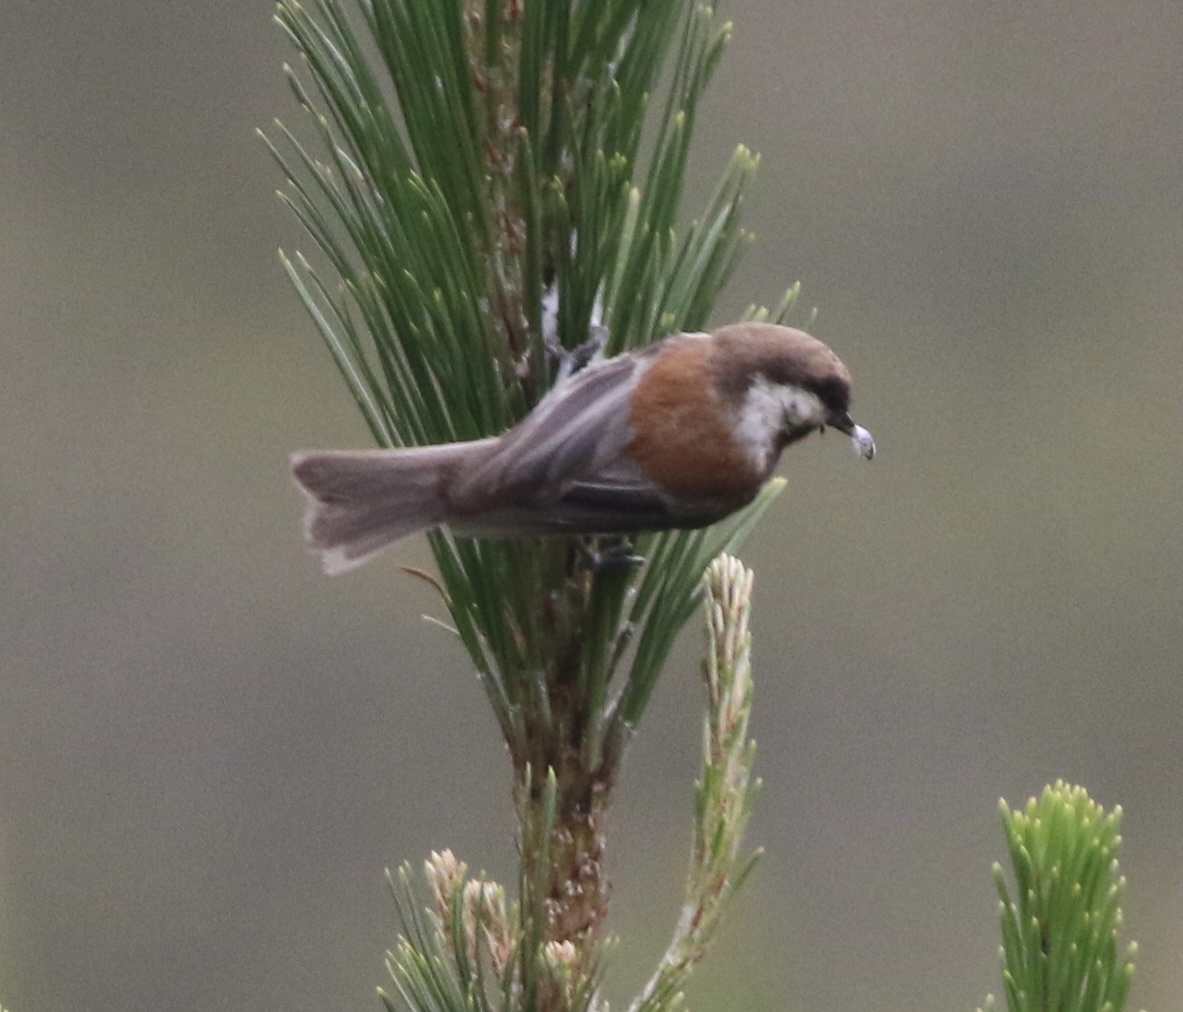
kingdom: Animalia
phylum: Chordata
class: Aves
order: Passeriformes
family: Paridae
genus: Poecile
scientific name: Poecile rufescens
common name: Chestnut-backed chickadee
